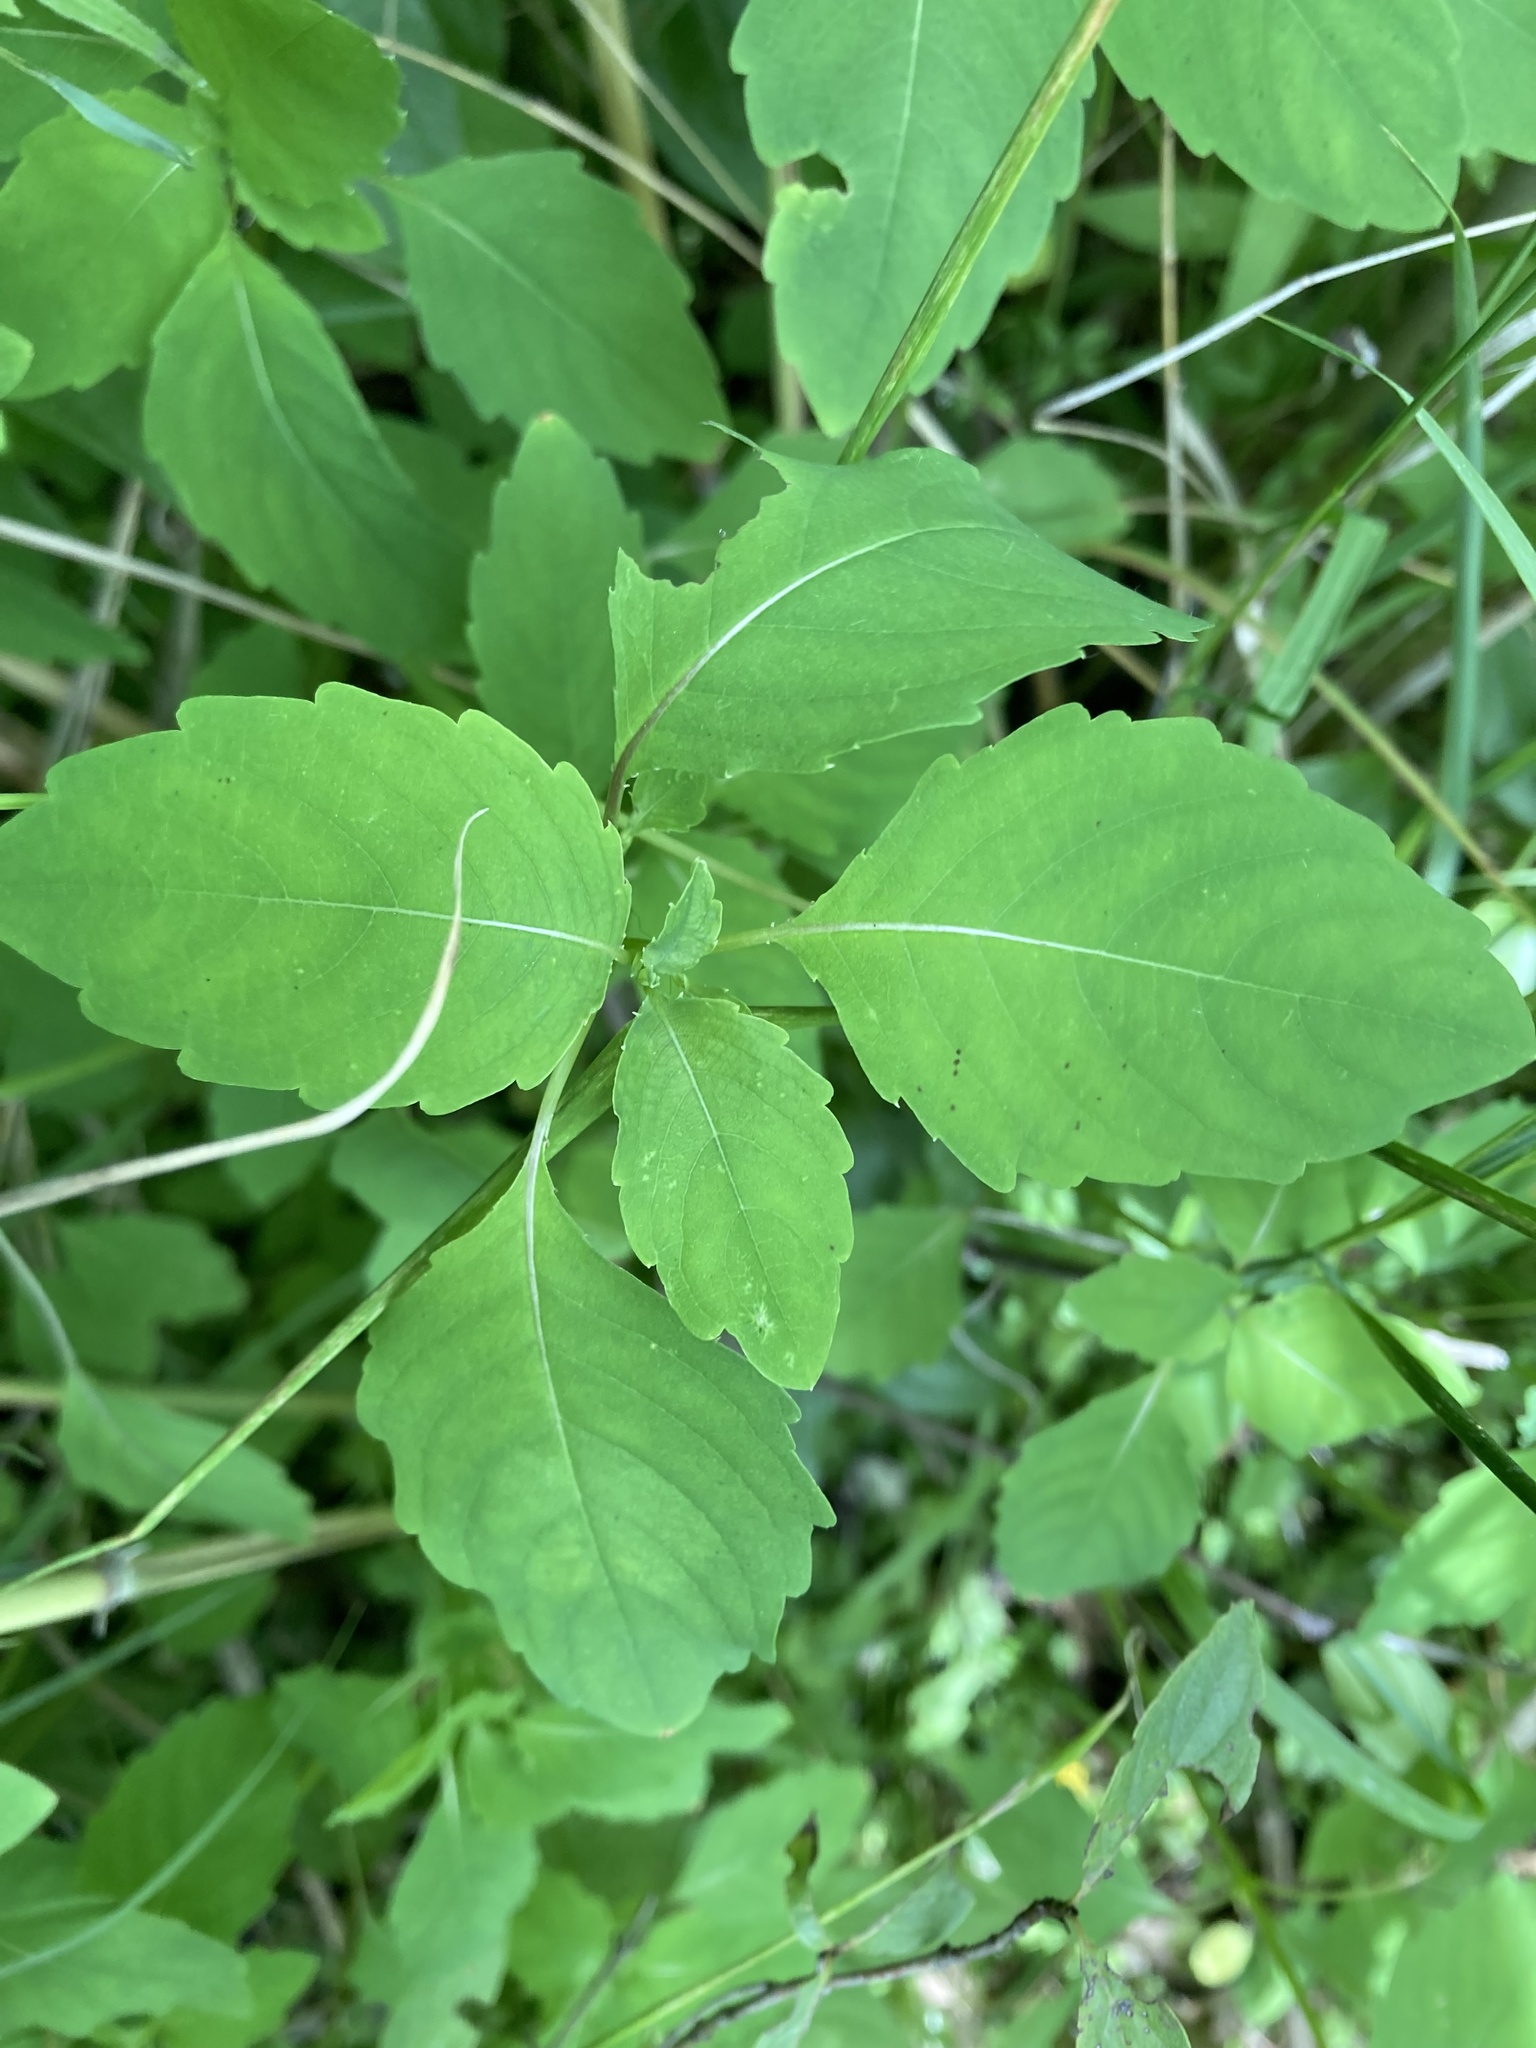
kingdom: Plantae
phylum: Tracheophyta
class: Magnoliopsida
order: Ericales
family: Balsaminaceae
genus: Impatiens
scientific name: Impatiens capensis
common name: Orange balsam
